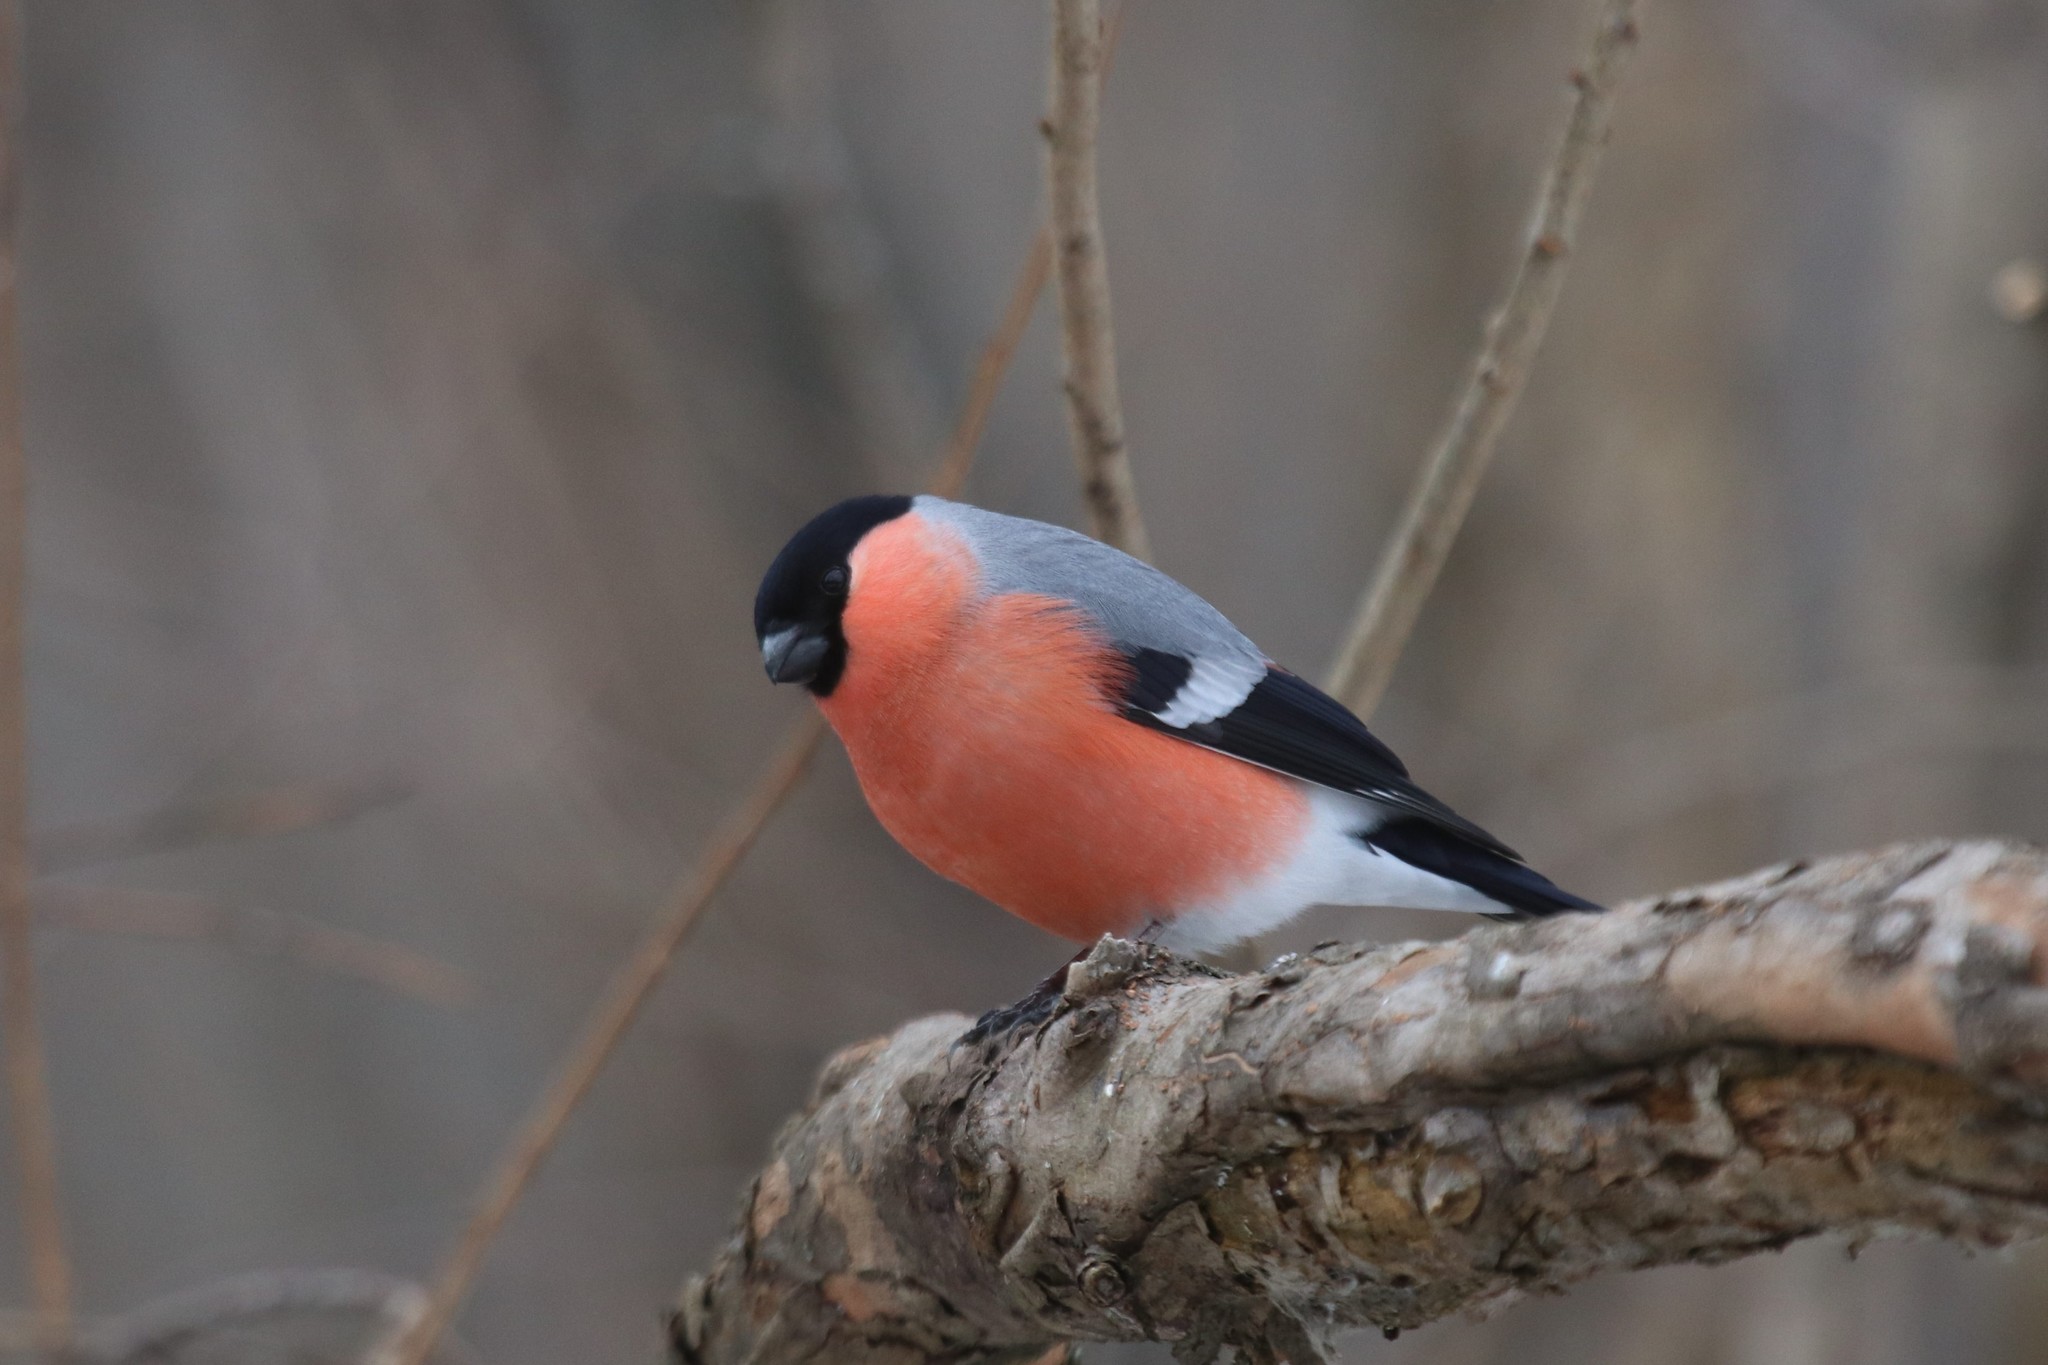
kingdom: Animalia
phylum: Chordata
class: Aves
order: Passeriformes
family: Fringillidae
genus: Pyrrhula
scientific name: Pyrrhula pyrrhula
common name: Eurasian bullfinch
